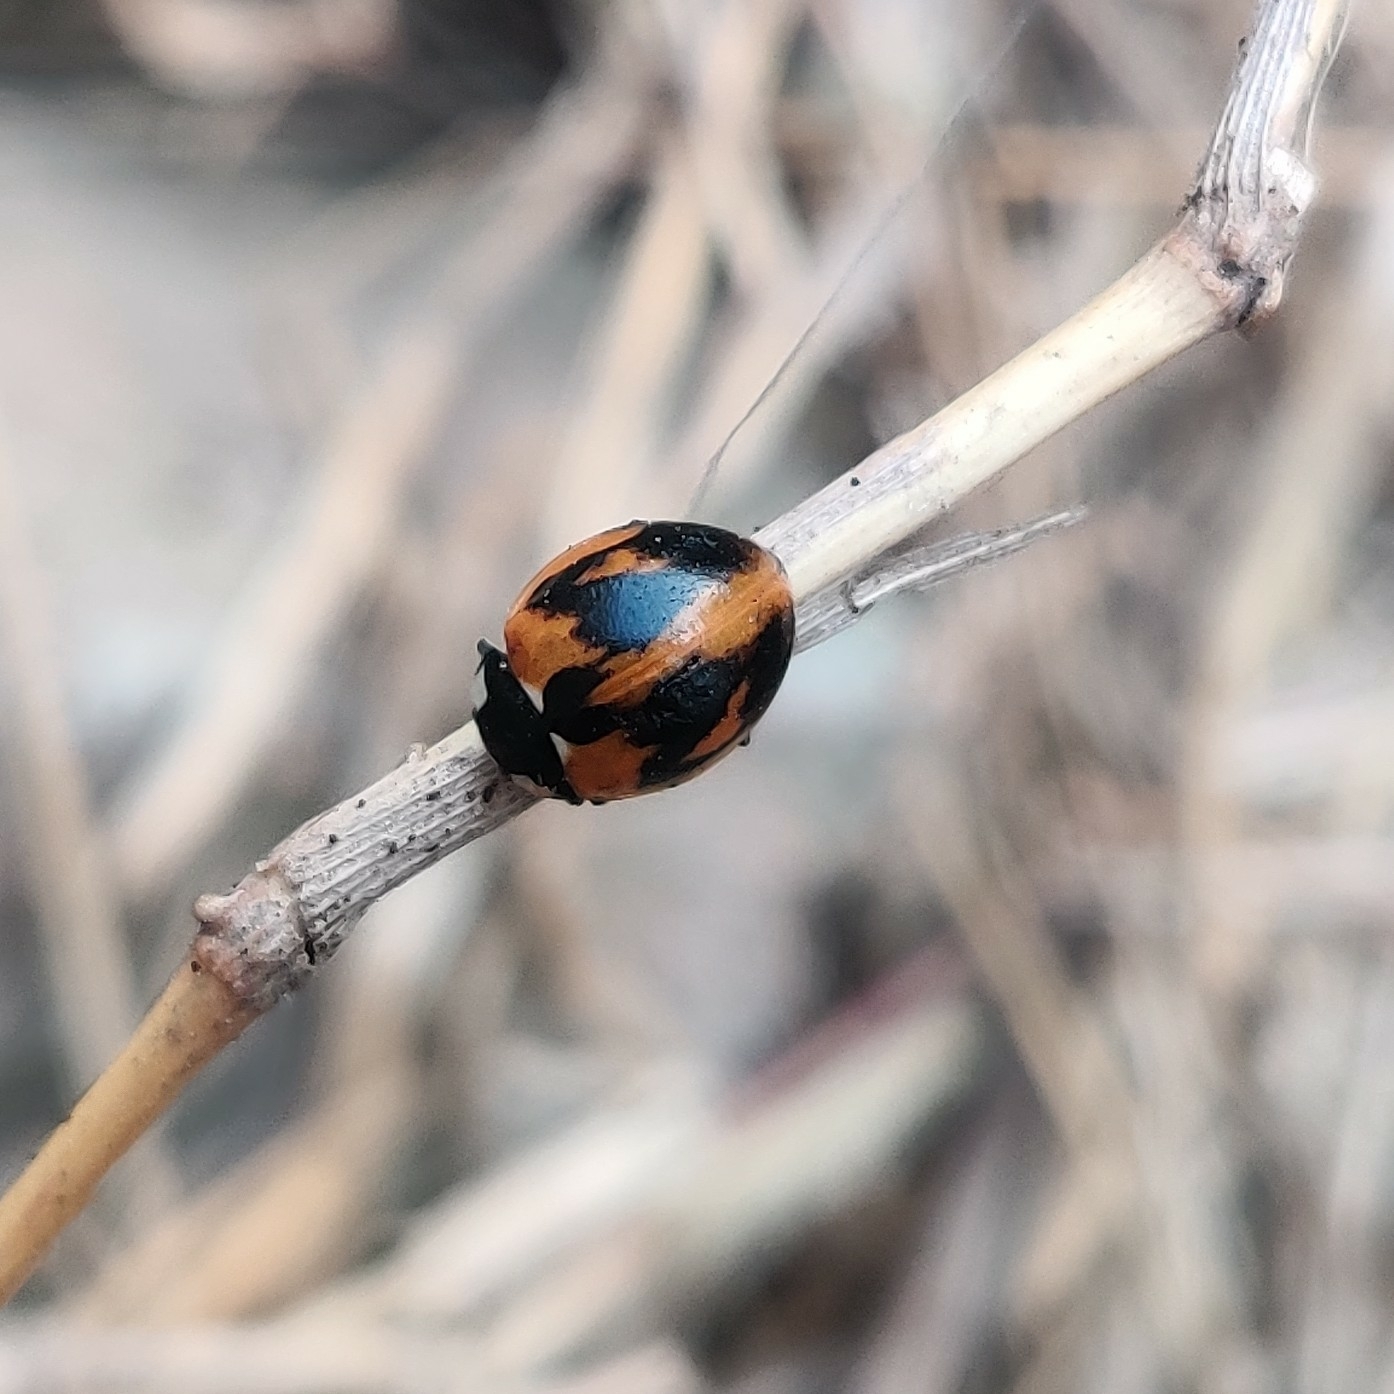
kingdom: Animalia
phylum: Arthropoda
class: Insecta
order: Coleoptera
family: Coccinellidae
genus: Coccinella
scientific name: Coccinella septempunctata
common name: Sevenspotted lady beetle
